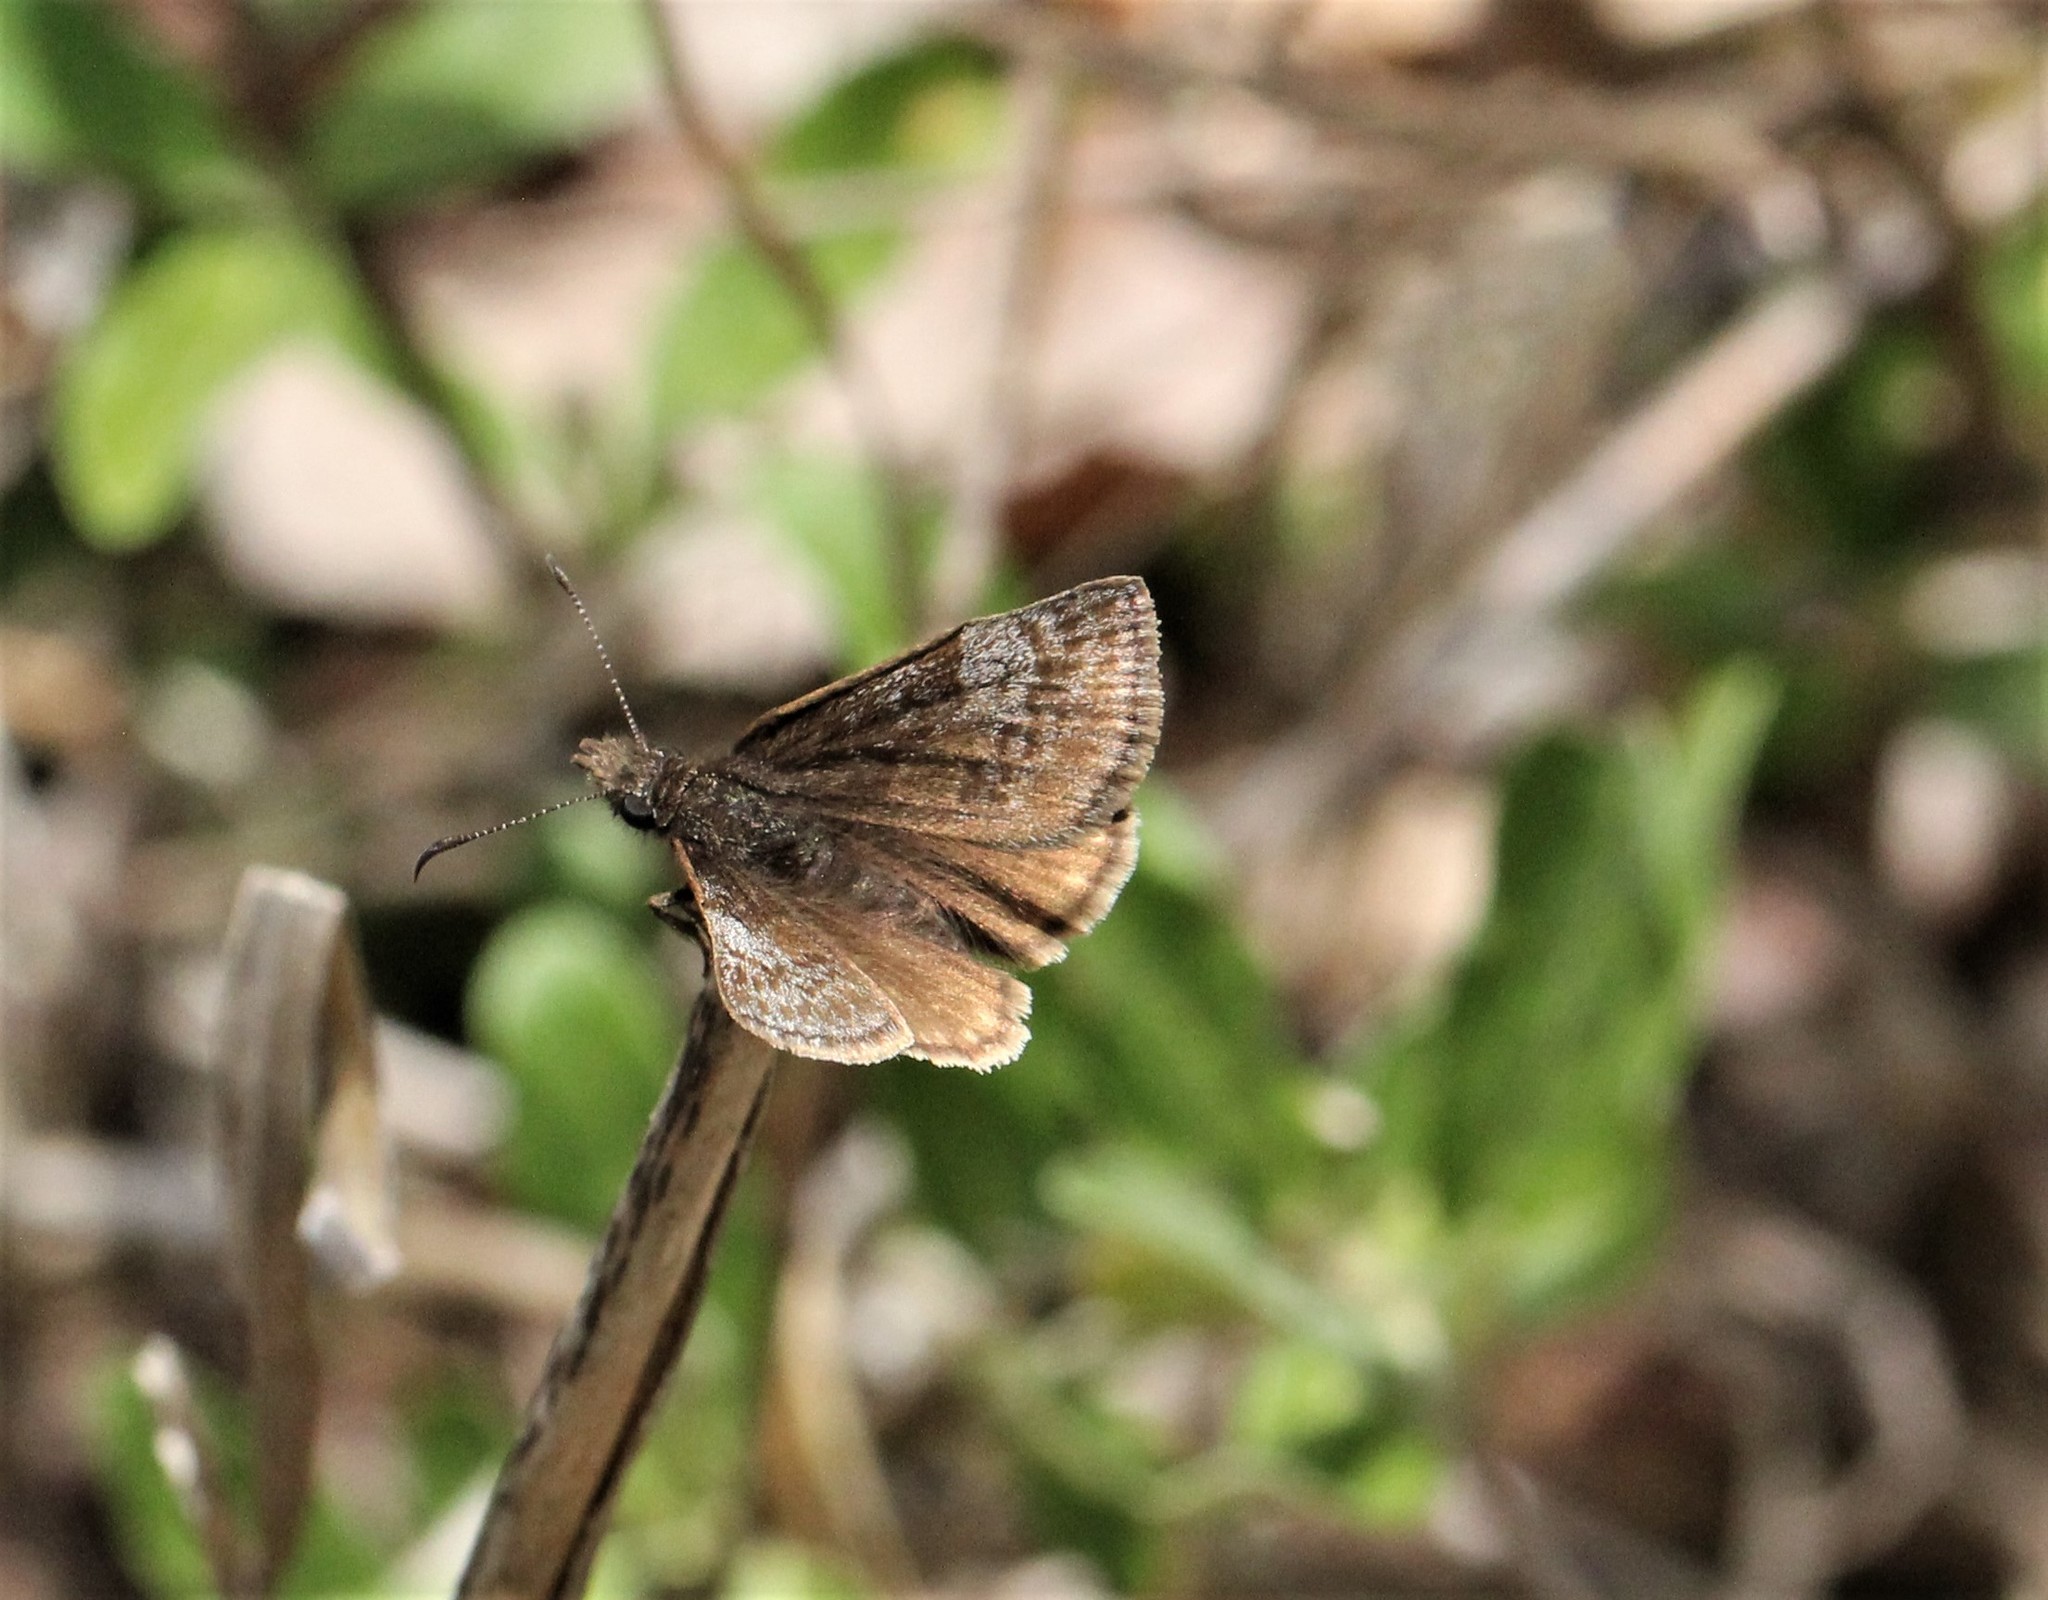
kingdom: Animalia
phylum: Arthropoda
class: Insecta
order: Lepidoptera
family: Hesperiidae
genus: Erynnis
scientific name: Erynnis icelus
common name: Dreamy duskywing
